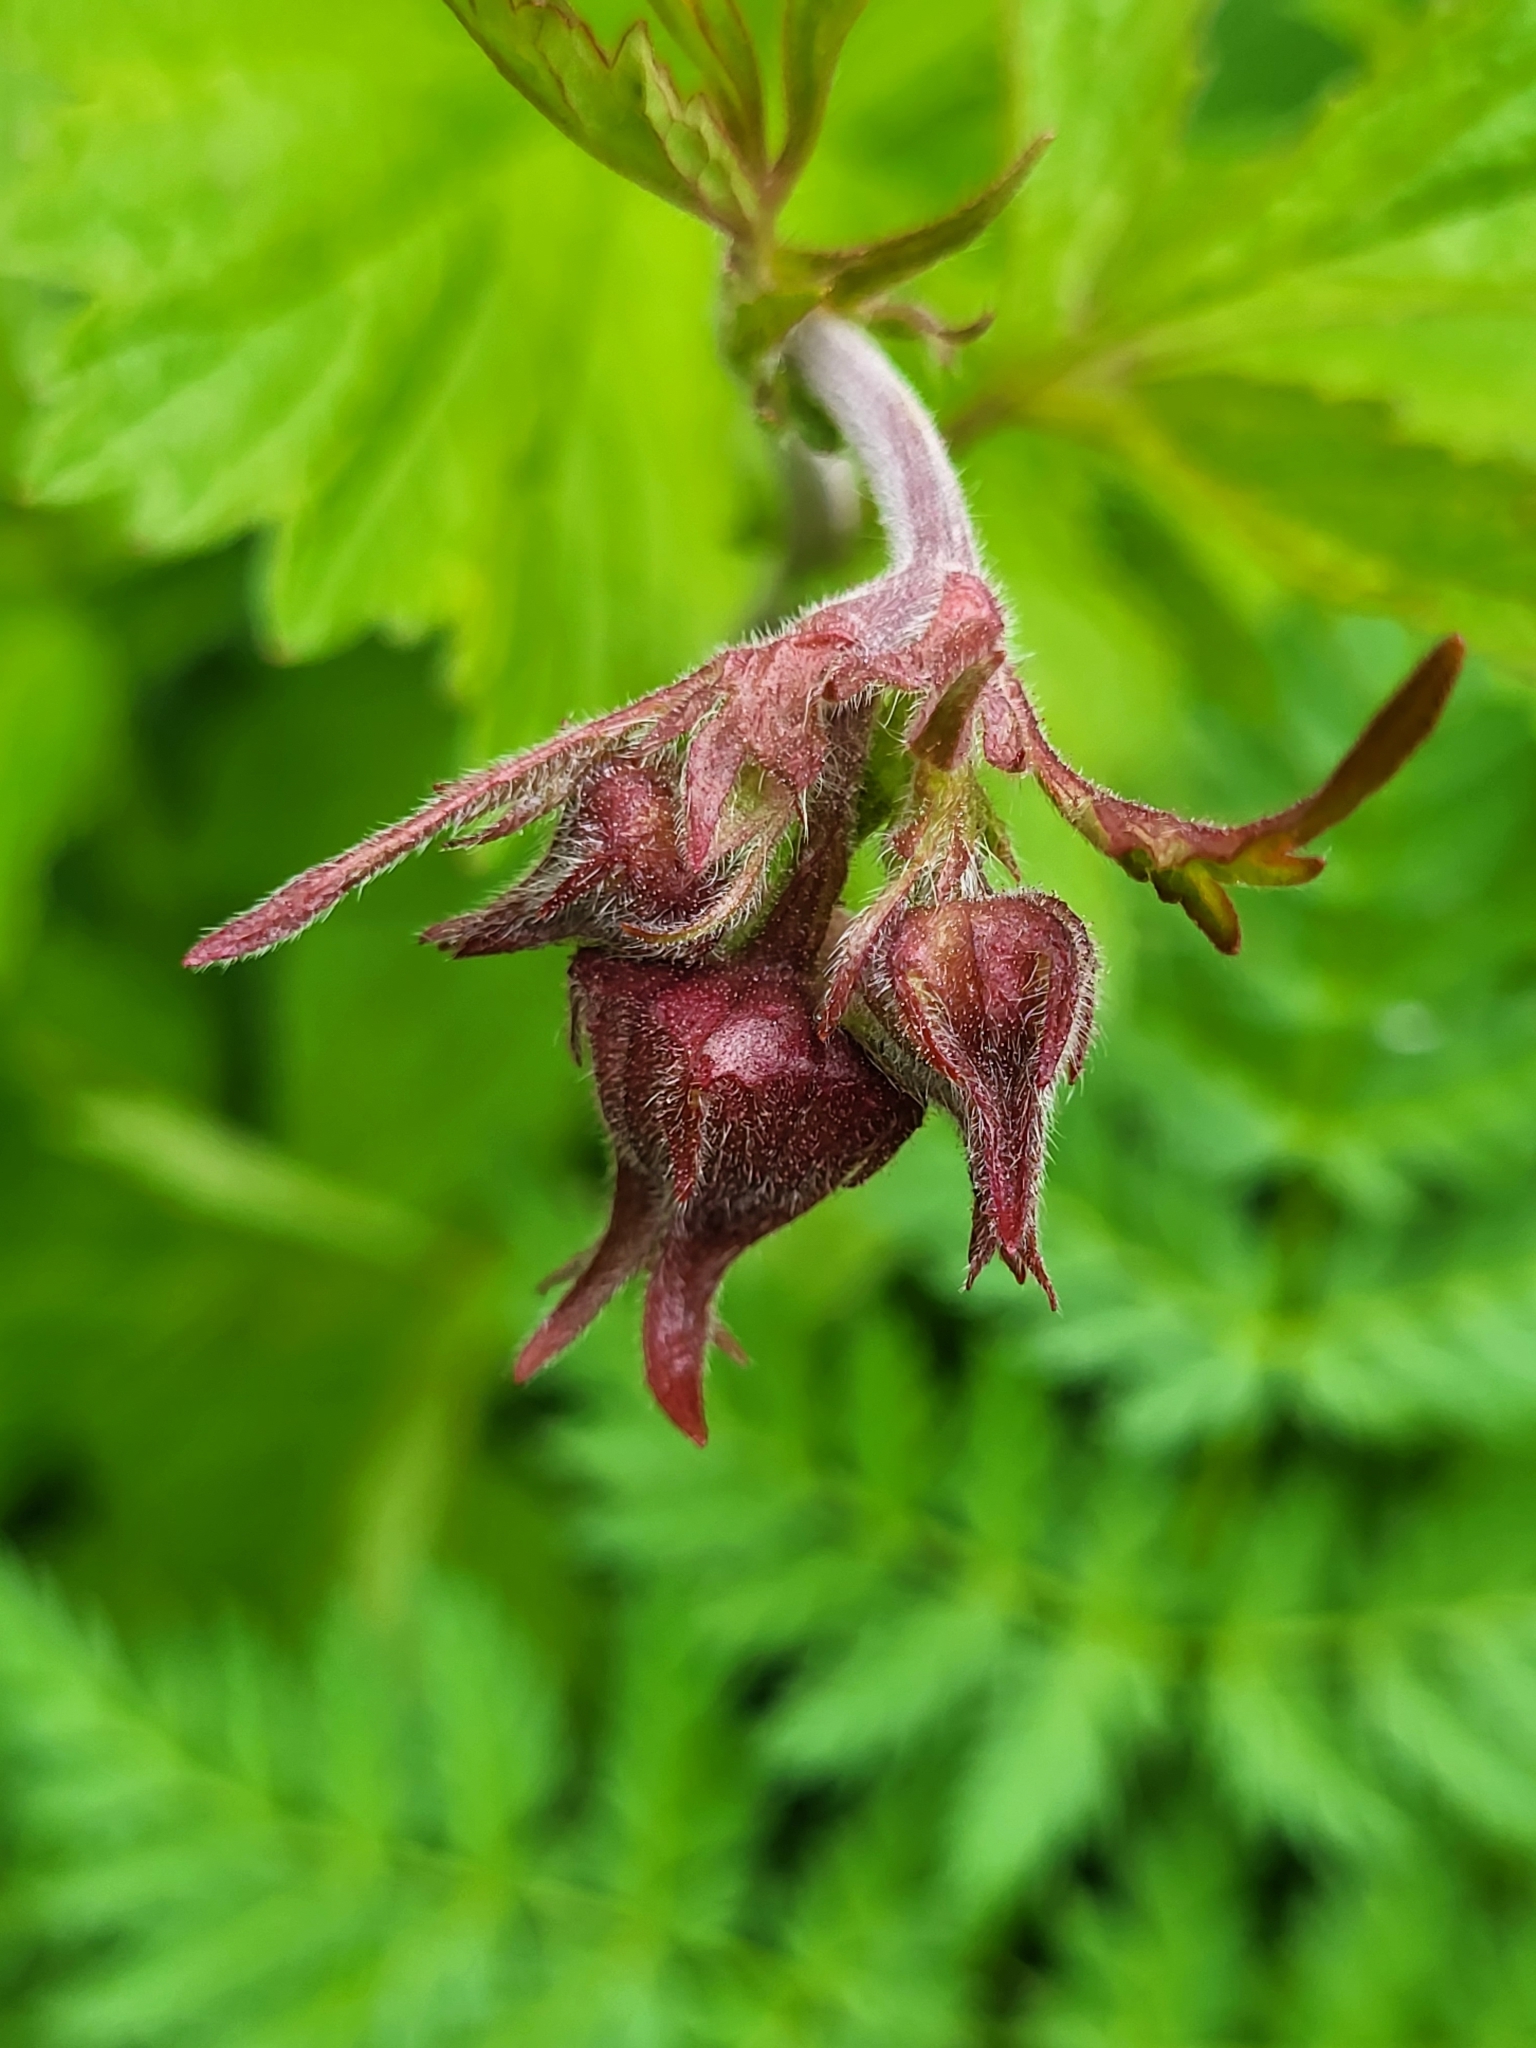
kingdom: Plantae
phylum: Tracheophyta
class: Magnoliopsida
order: Rosales
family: Rosaceae
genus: Geum
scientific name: Geum rivale
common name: Water avens
